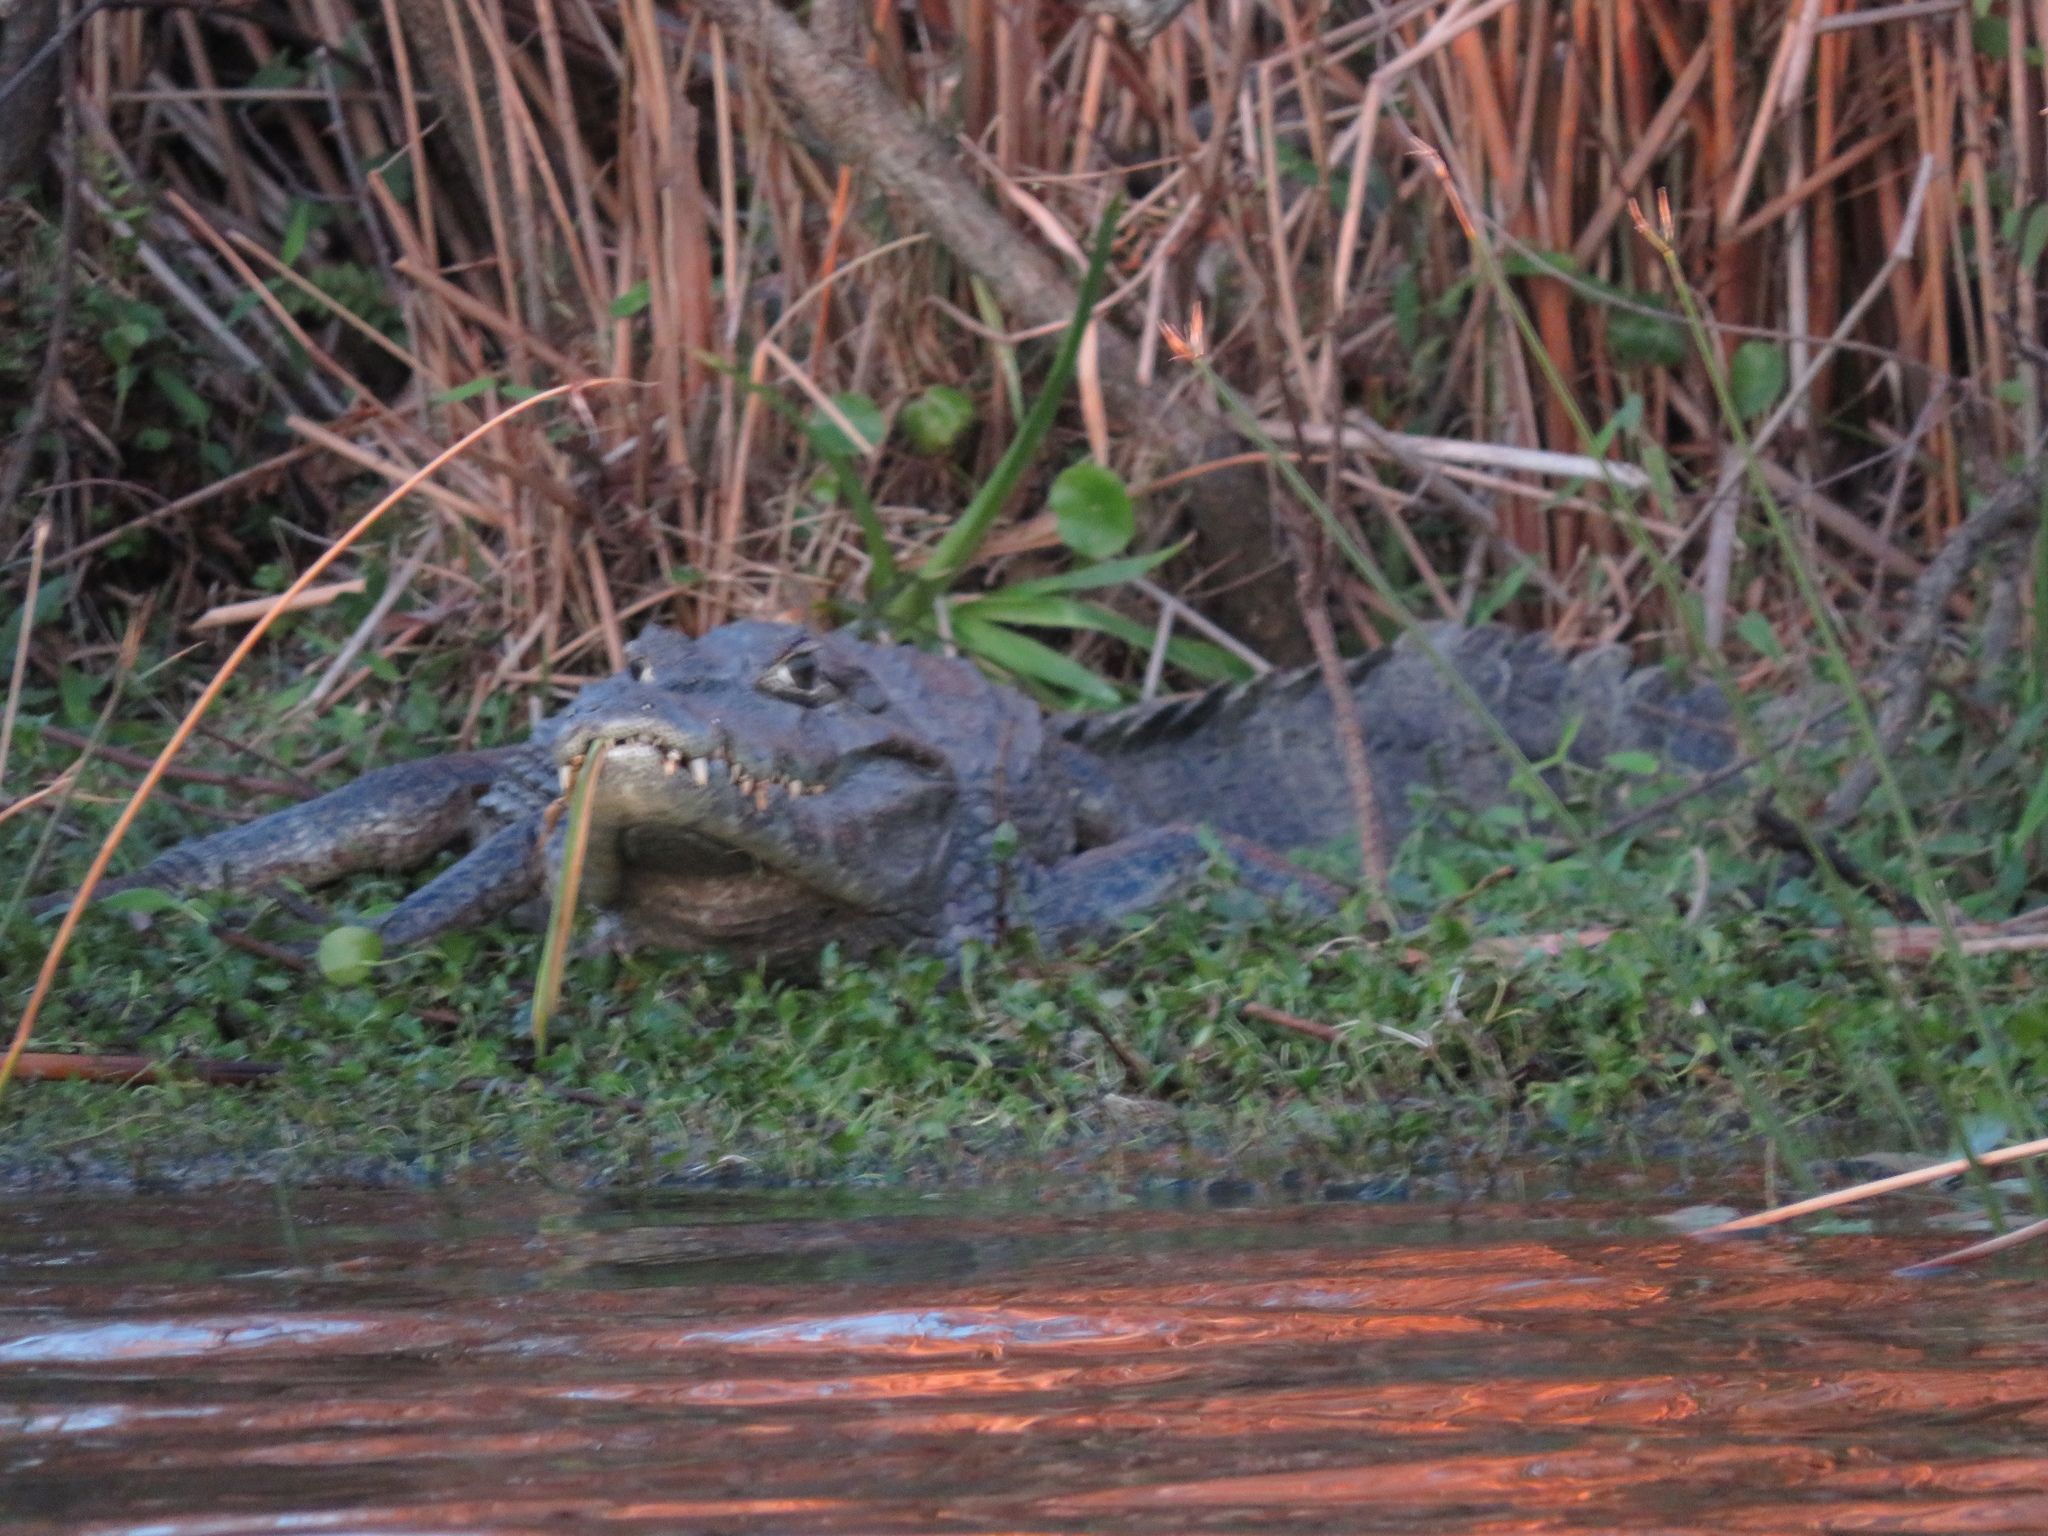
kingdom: Animalia
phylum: Chordata
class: Crocodylia
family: Alligatoridae
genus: Caiman
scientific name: Caiman yacare
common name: Yacare caiman
